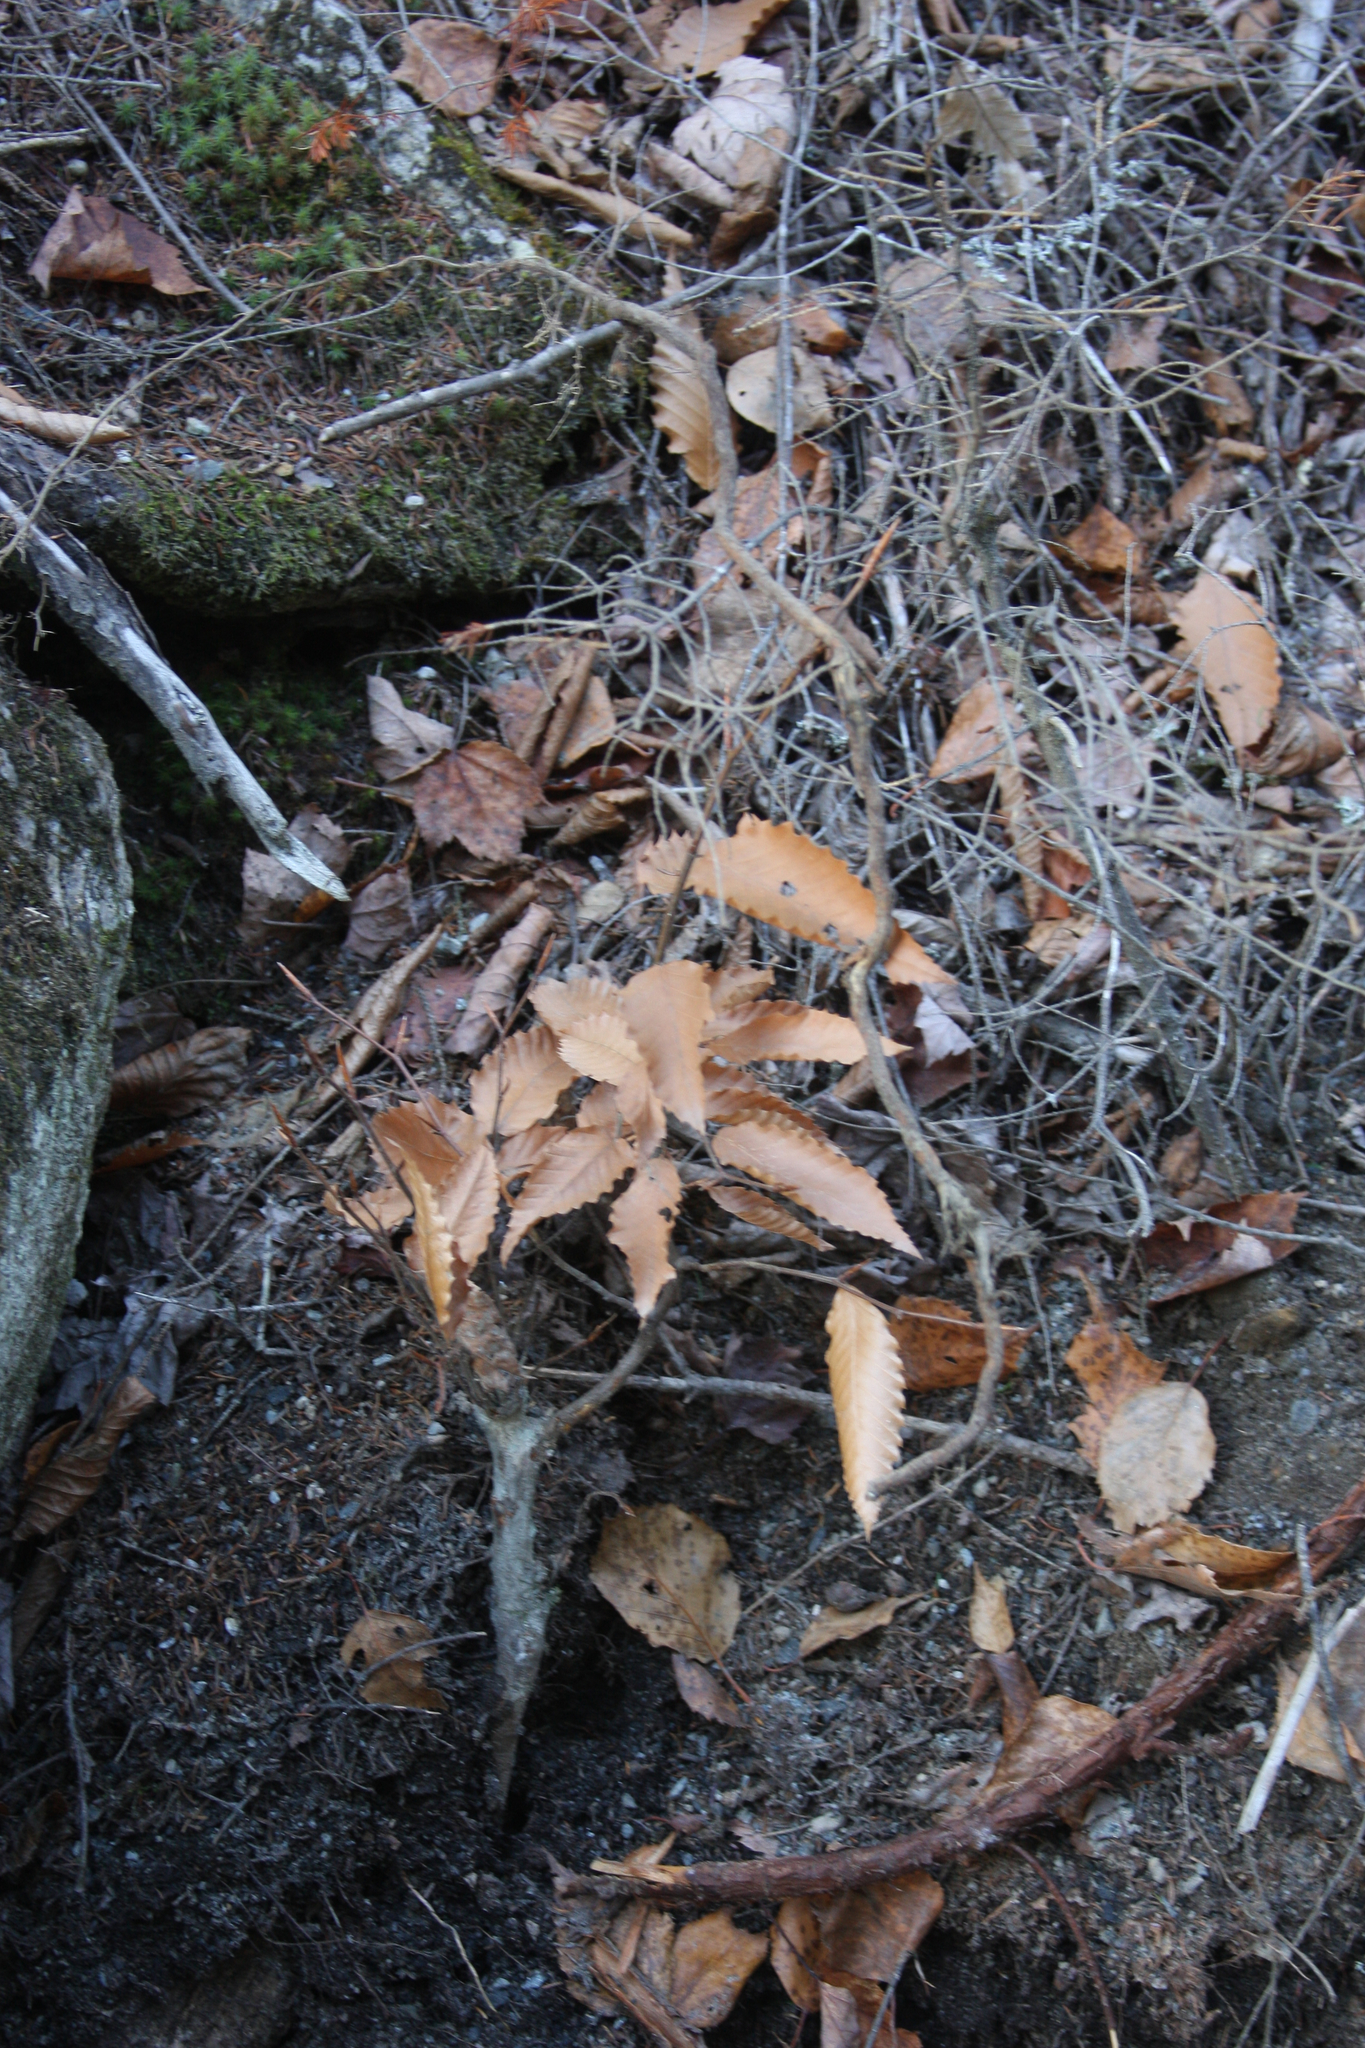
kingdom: Plantae
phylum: Tracheophyta
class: Magnoliopsida
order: Fagales
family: Fagaceae
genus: Fagus
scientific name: Fagus grandifolia
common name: American beech
